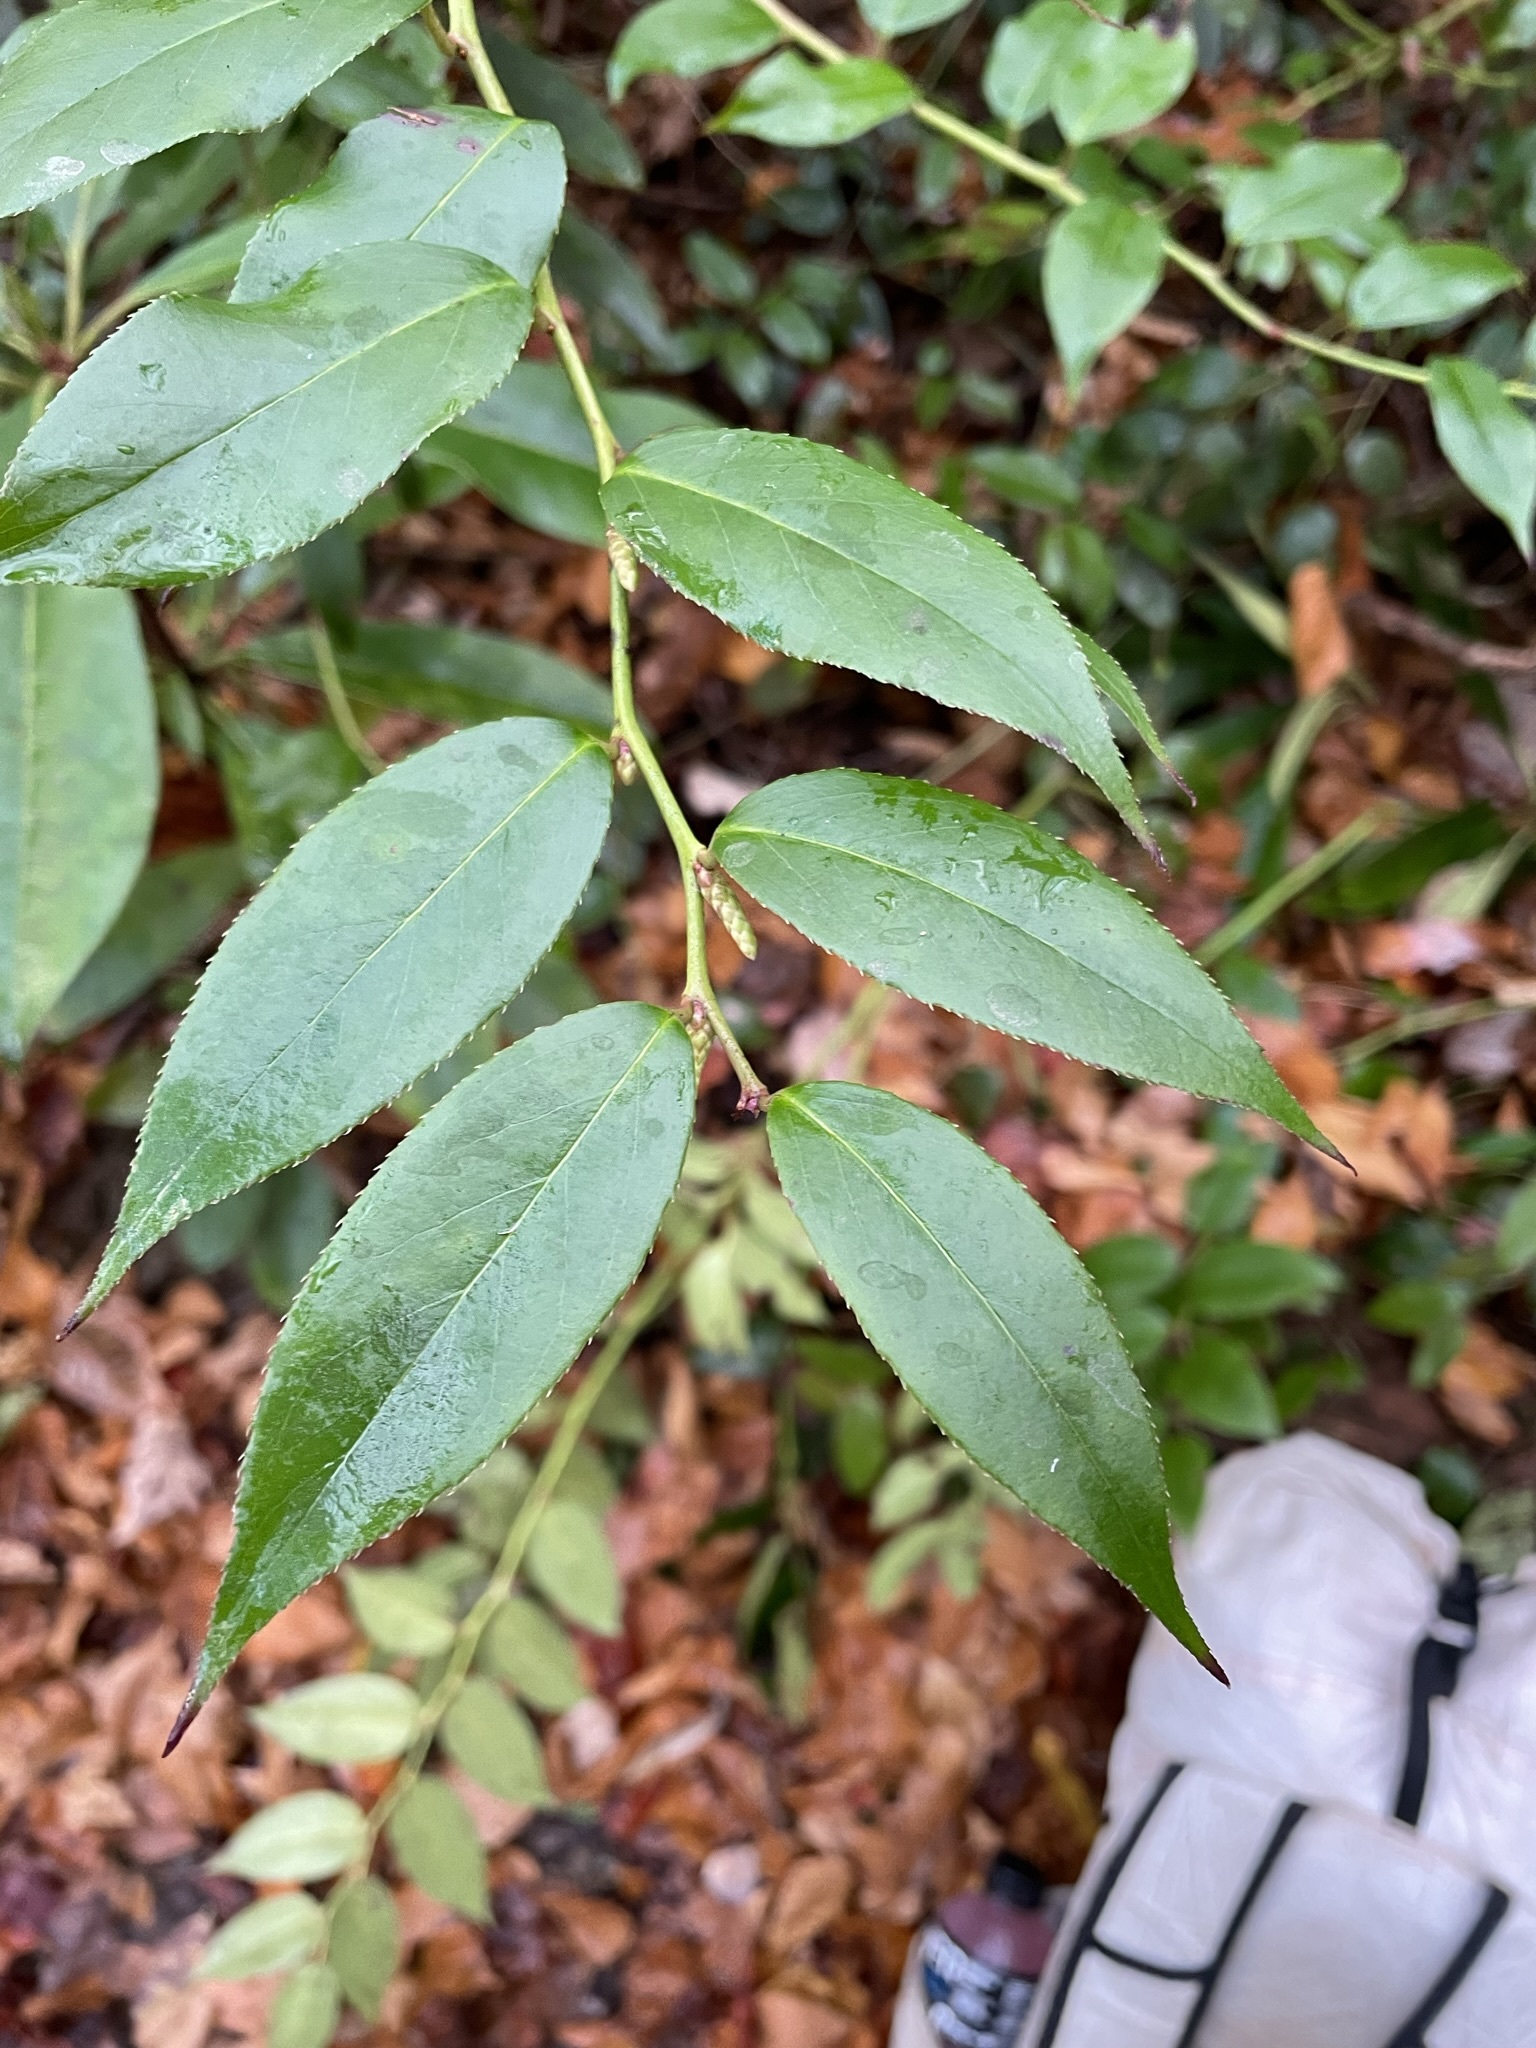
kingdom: Plantae
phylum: Tracheophyta
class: Magnoliopsida
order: Ericales
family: Ericaceae
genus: Leucothoe
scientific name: Leucothoe fontanesiana
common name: Fetterbush
